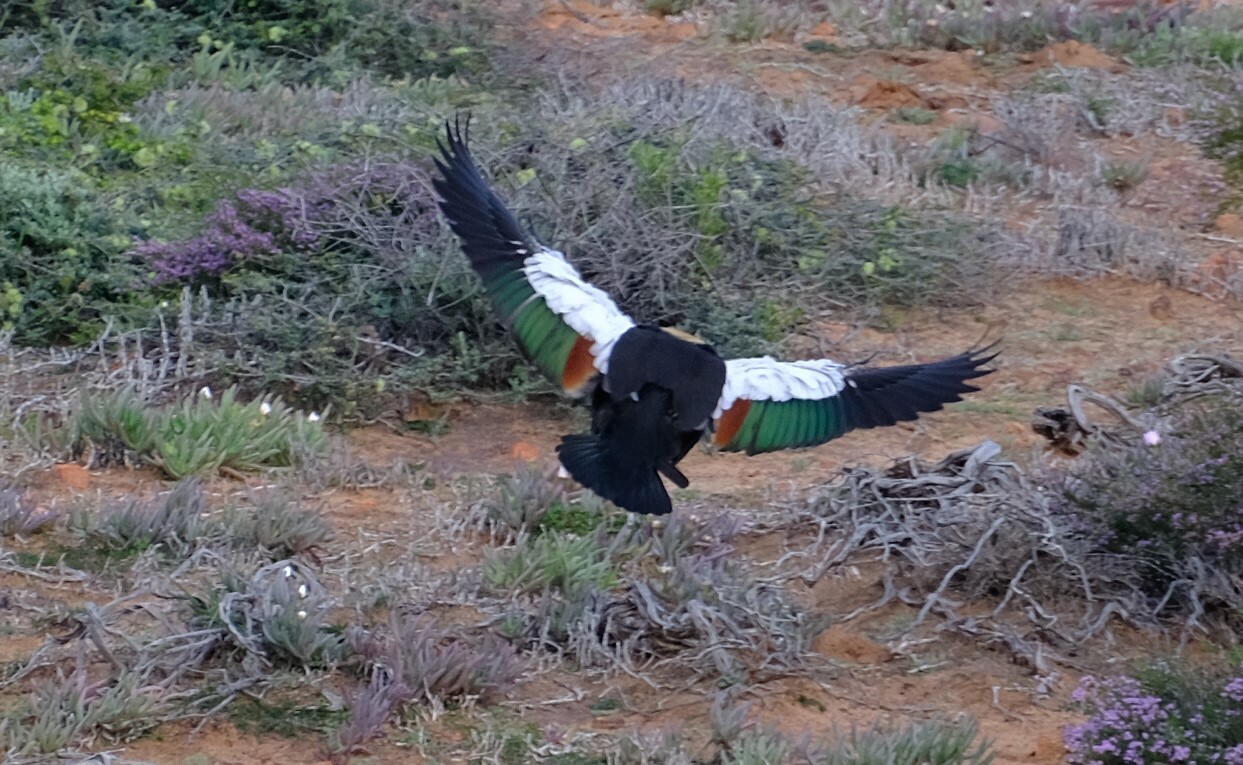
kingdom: Animalia
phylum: Chordata
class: Aves
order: Anseriformes
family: Anatidae
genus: Tadorna
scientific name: Tadorna tadornoides
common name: Australian shelduck
